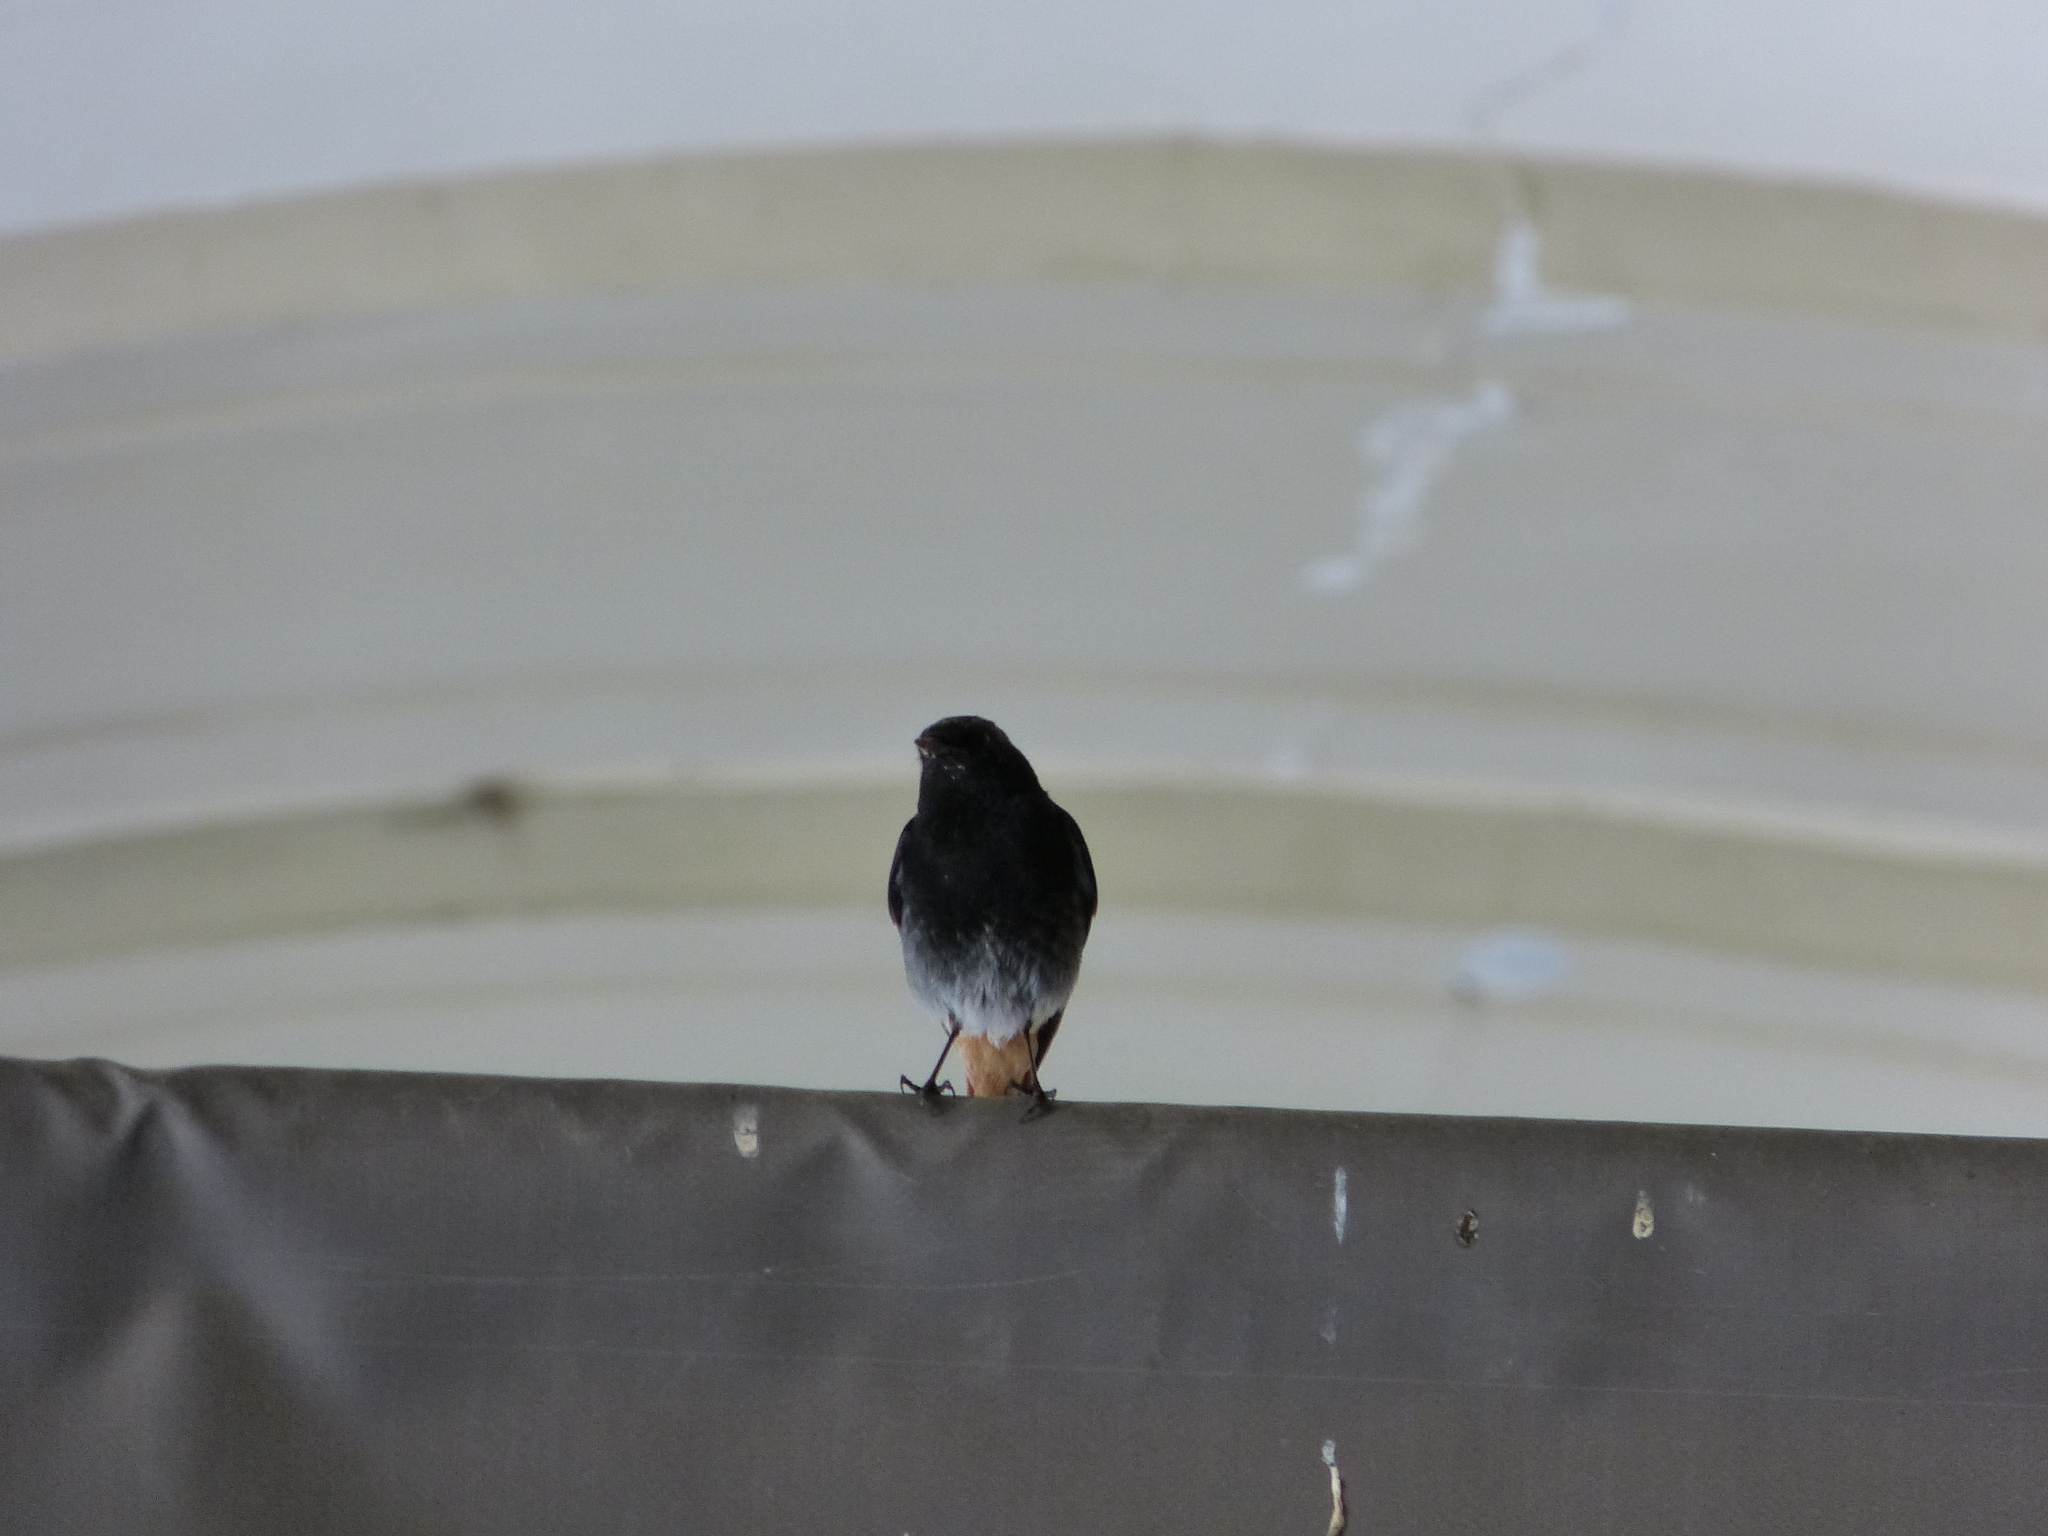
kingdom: Animalia
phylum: Chordata
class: Aves
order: Passeriformes
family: Muscicapidae
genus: Phoenicurus
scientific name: Phoenicurus ochruros
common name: Black redstart
